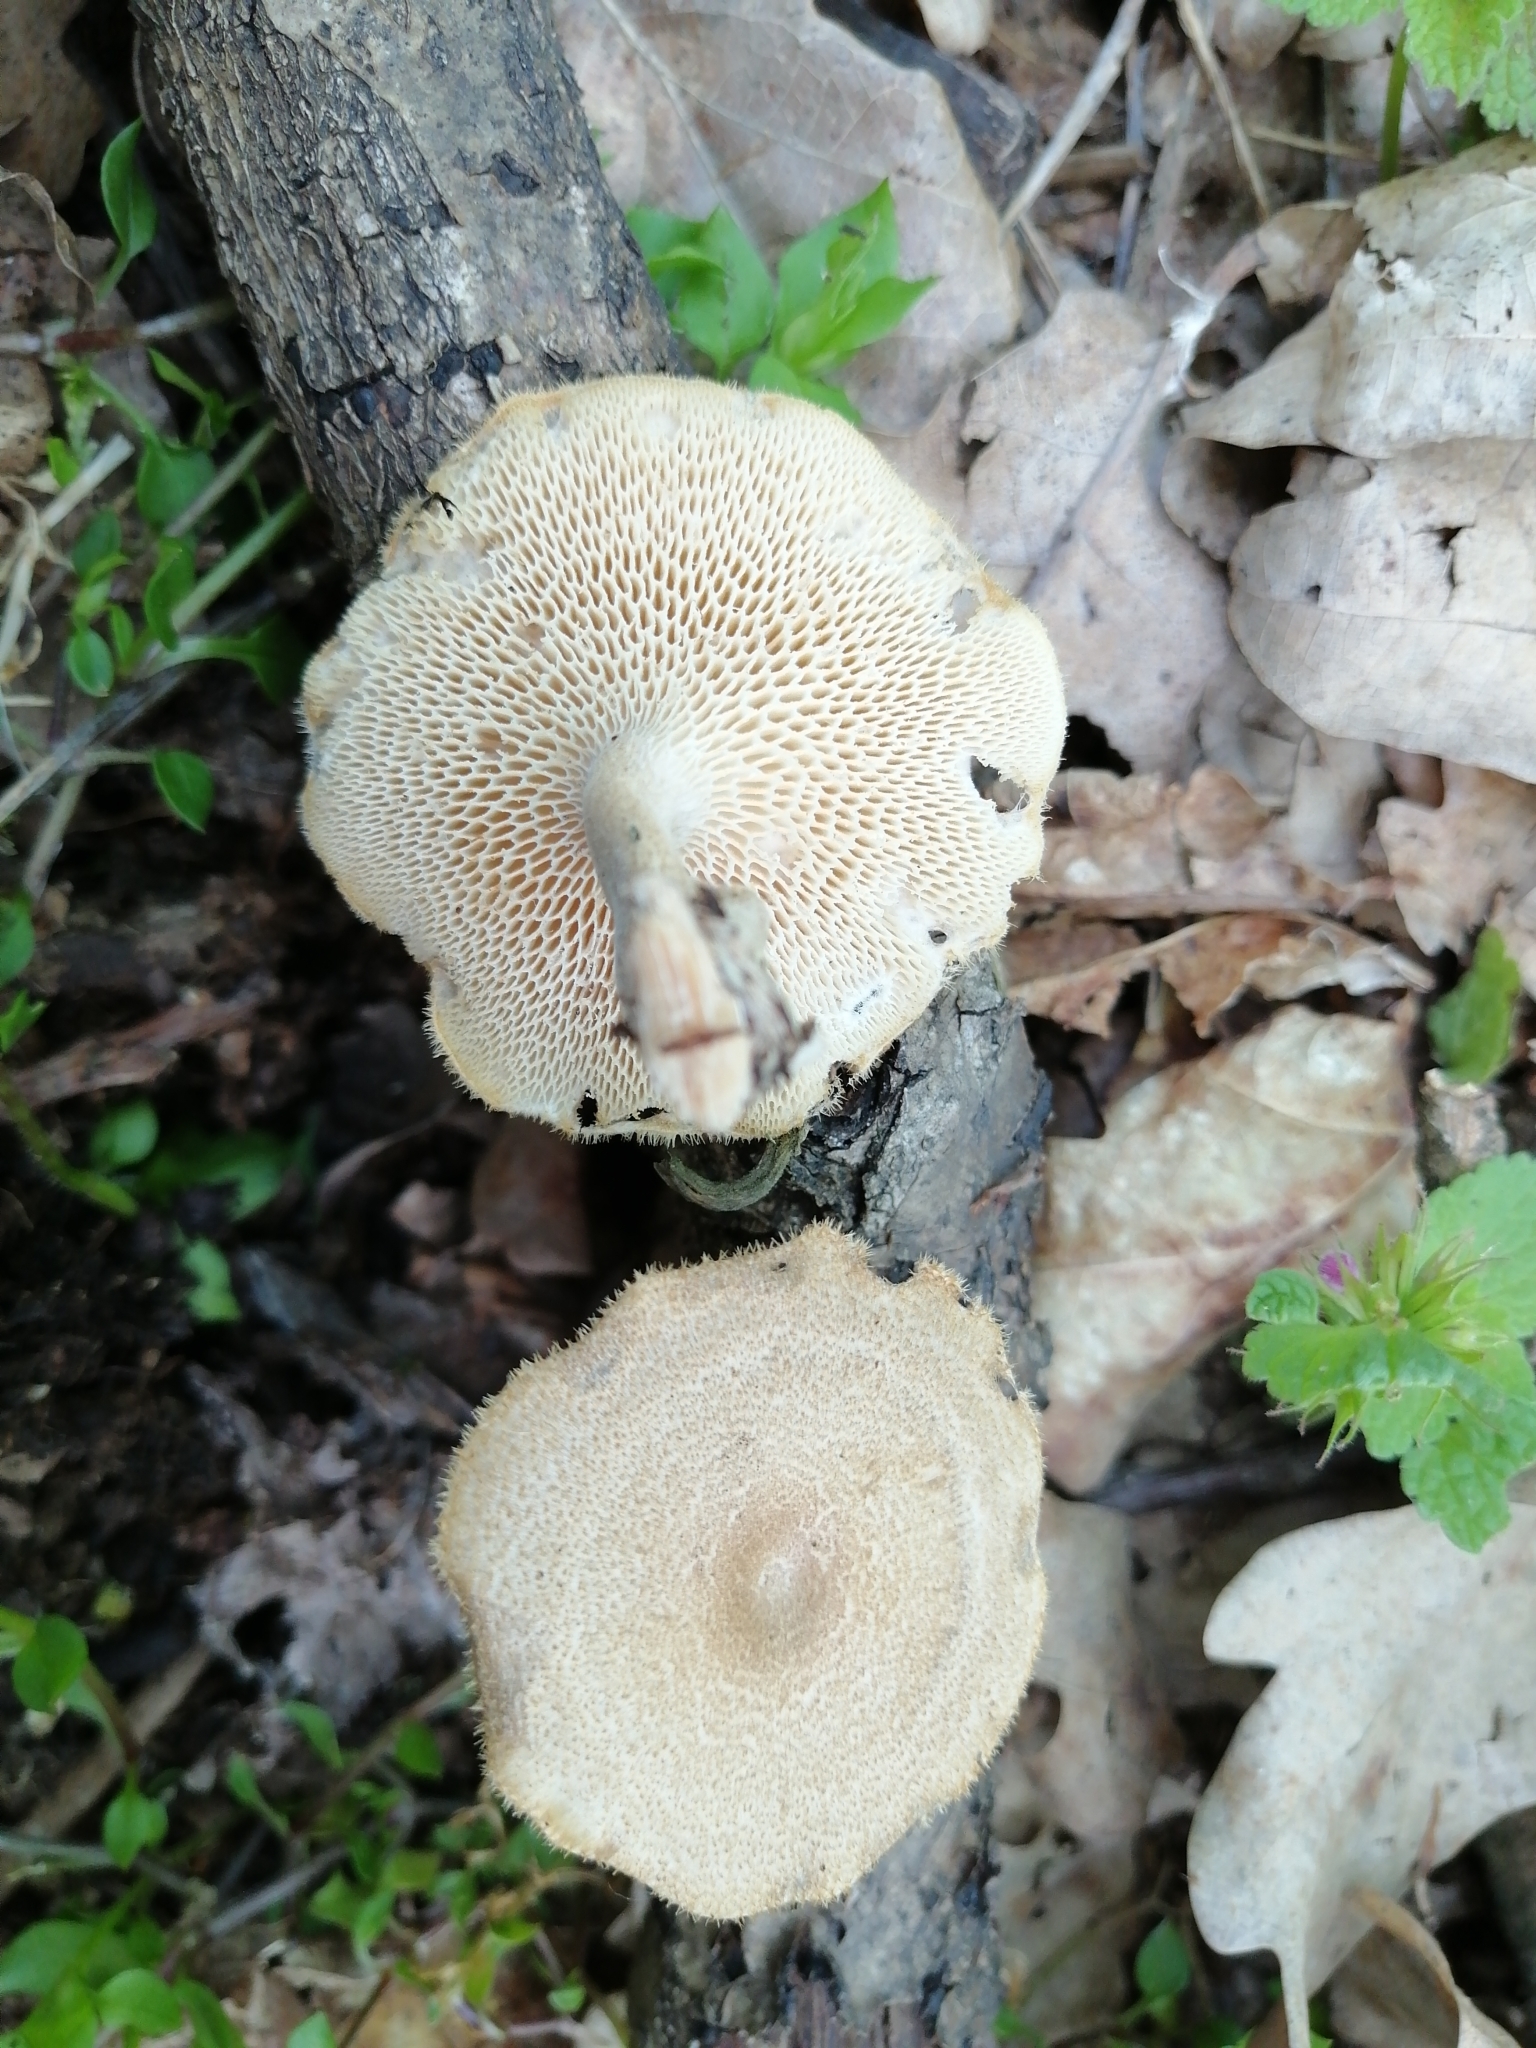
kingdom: Fungi
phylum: Basidiomycota
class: Agaricomycetes
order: Polyporales
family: Polyporaceae
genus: Lentinus
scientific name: Lentinus arcularius
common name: Spring polypore
